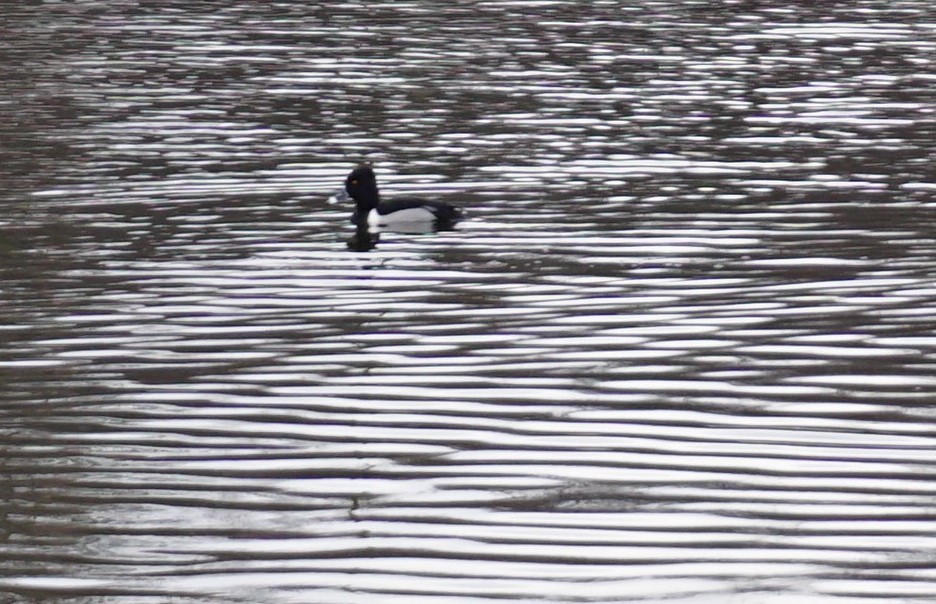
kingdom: Animalia
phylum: Chordata
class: Aves
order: Anseriformes
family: Anatidae
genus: Aythya
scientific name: Aythya collaris
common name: Ring-necked duck
